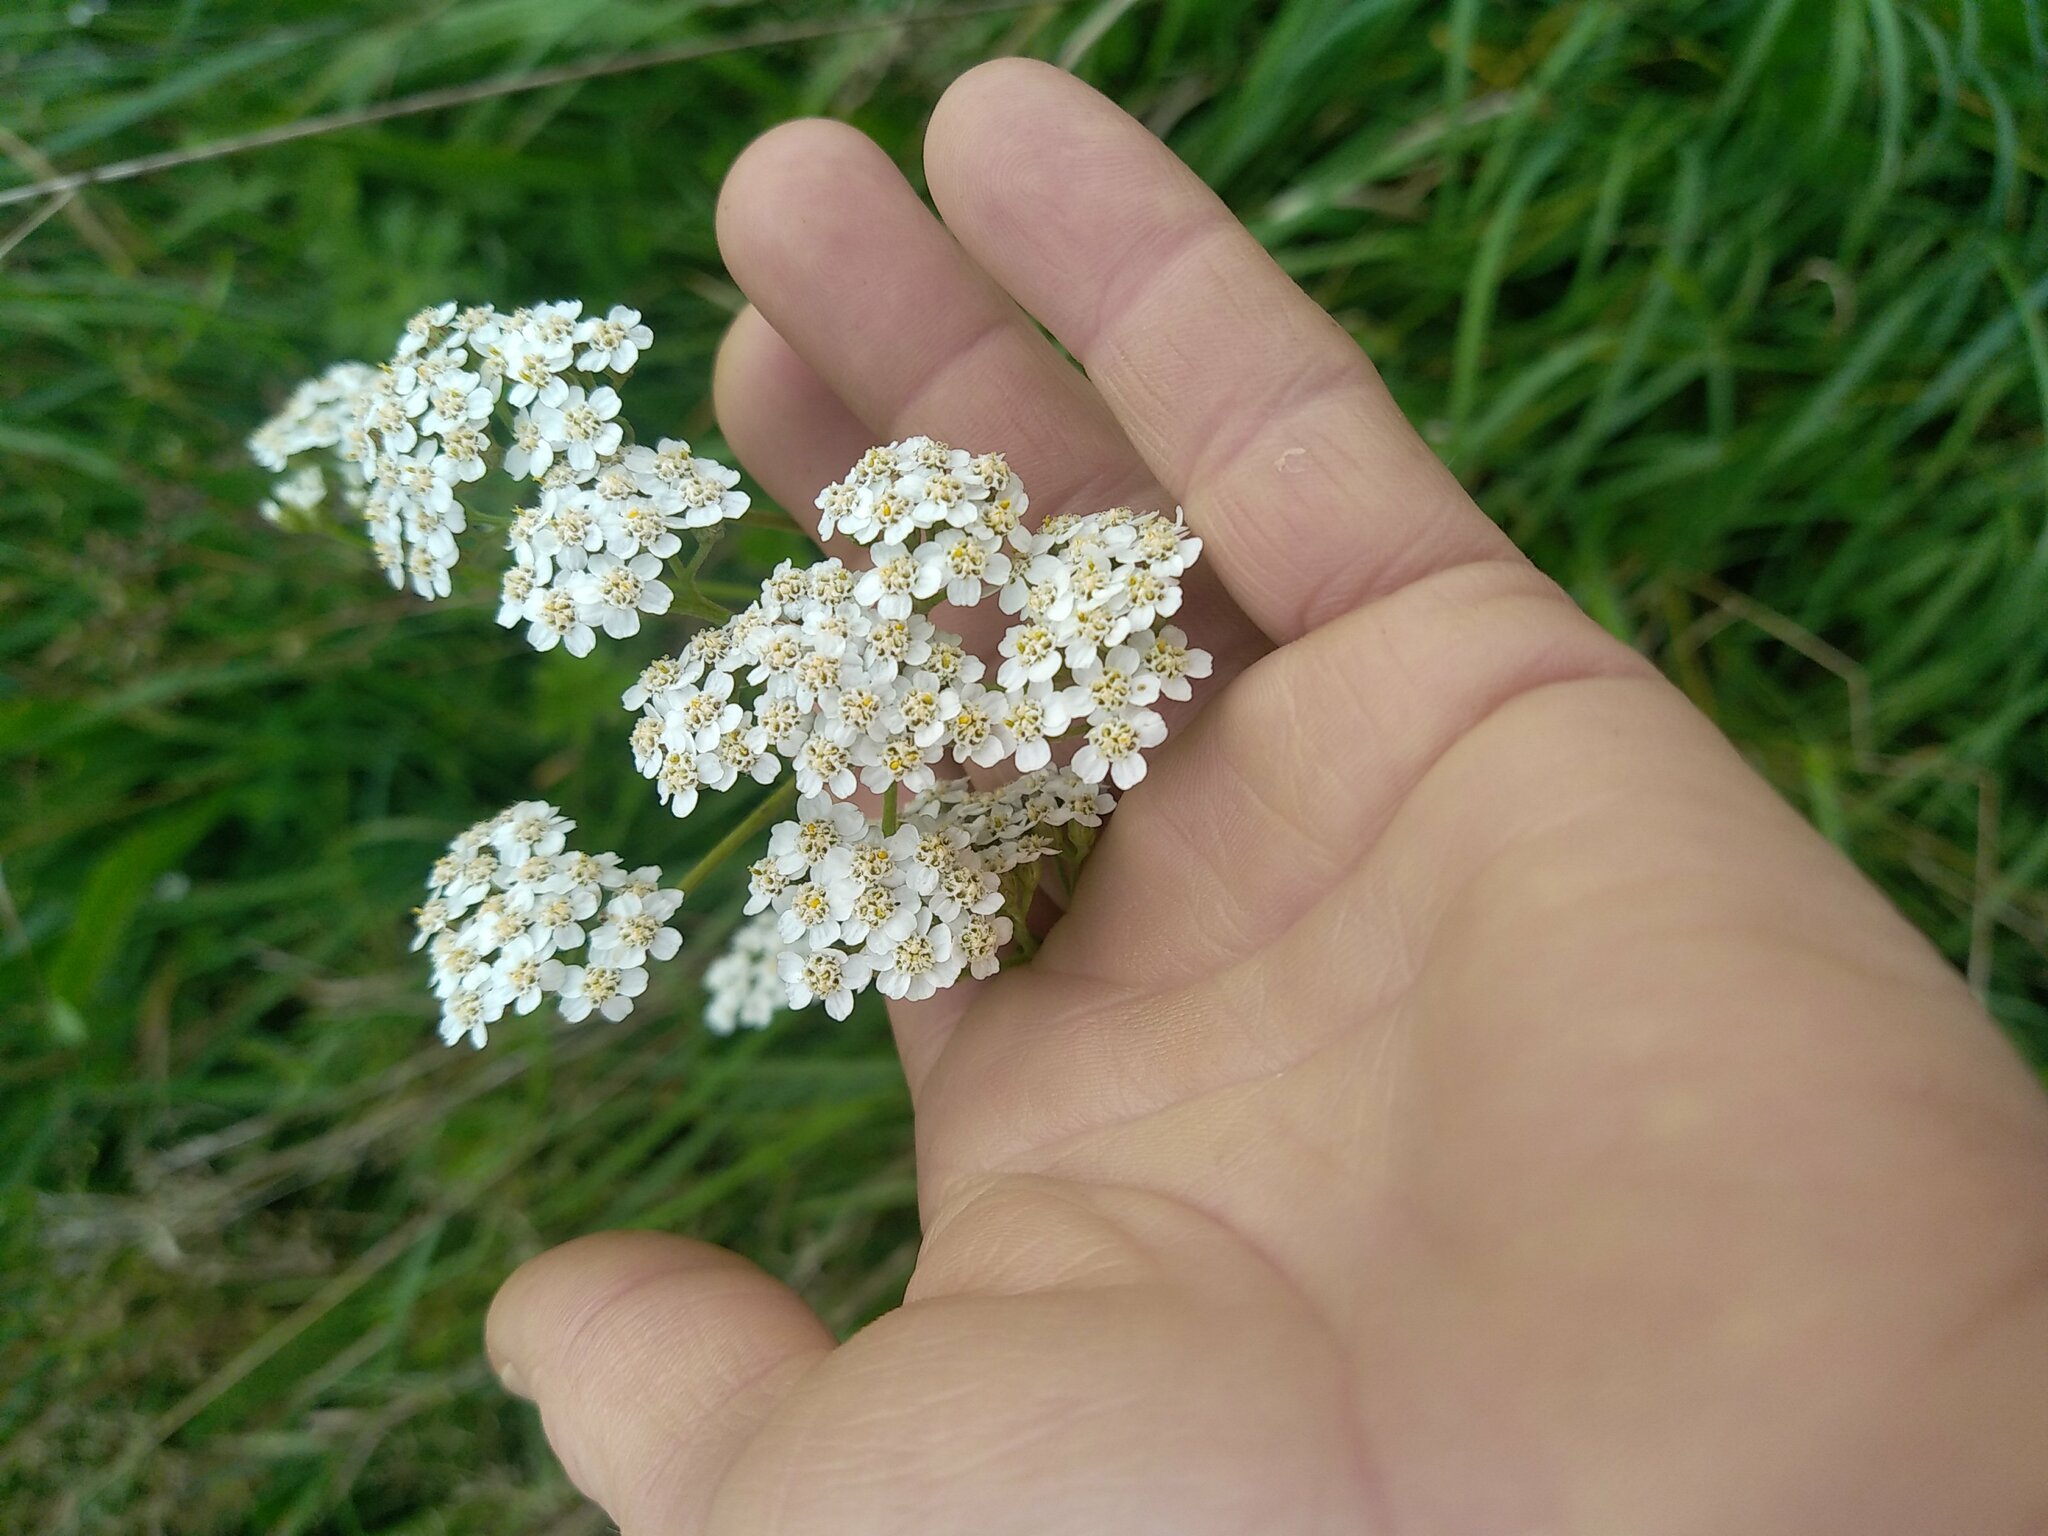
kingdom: Plantae
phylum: Tracheophyta
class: Magnoliopsida
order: Asterales
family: Asteraceae
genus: Achillea
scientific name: Achillea millefolium
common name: Yarrow
